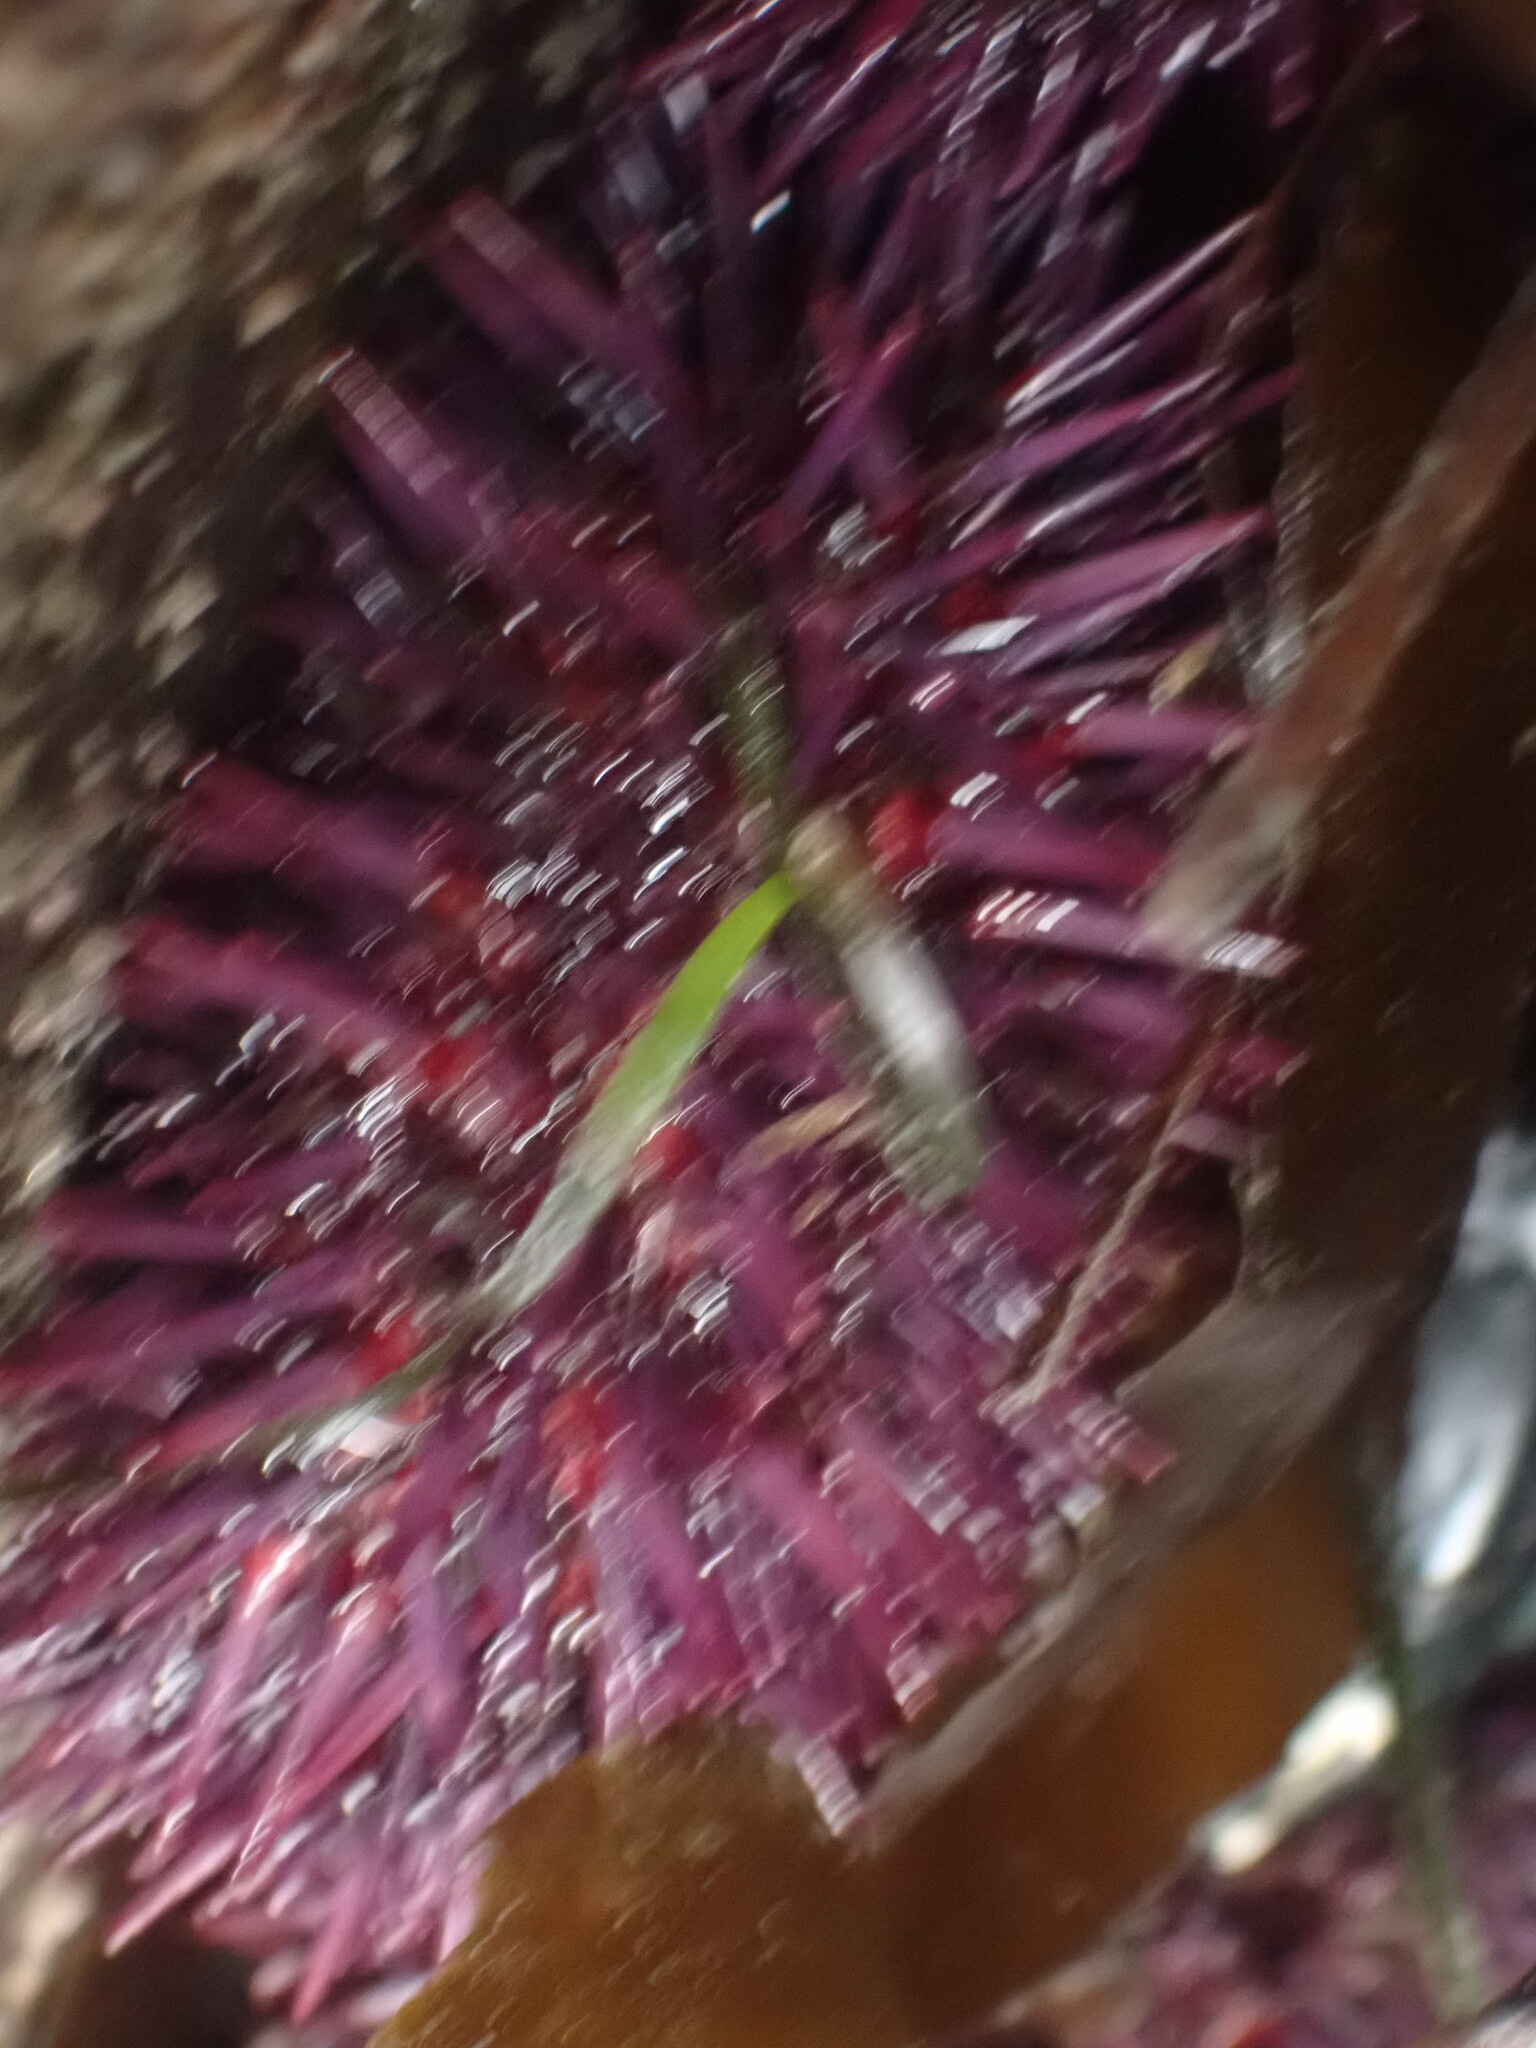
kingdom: Animalia
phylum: Echinodermata
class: Echinoidea
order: Camarodonta
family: Strongylocentrotidae
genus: Strongylocentrotus
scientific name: Strongylocentrotus purpuratus
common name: Purple sea urchin
